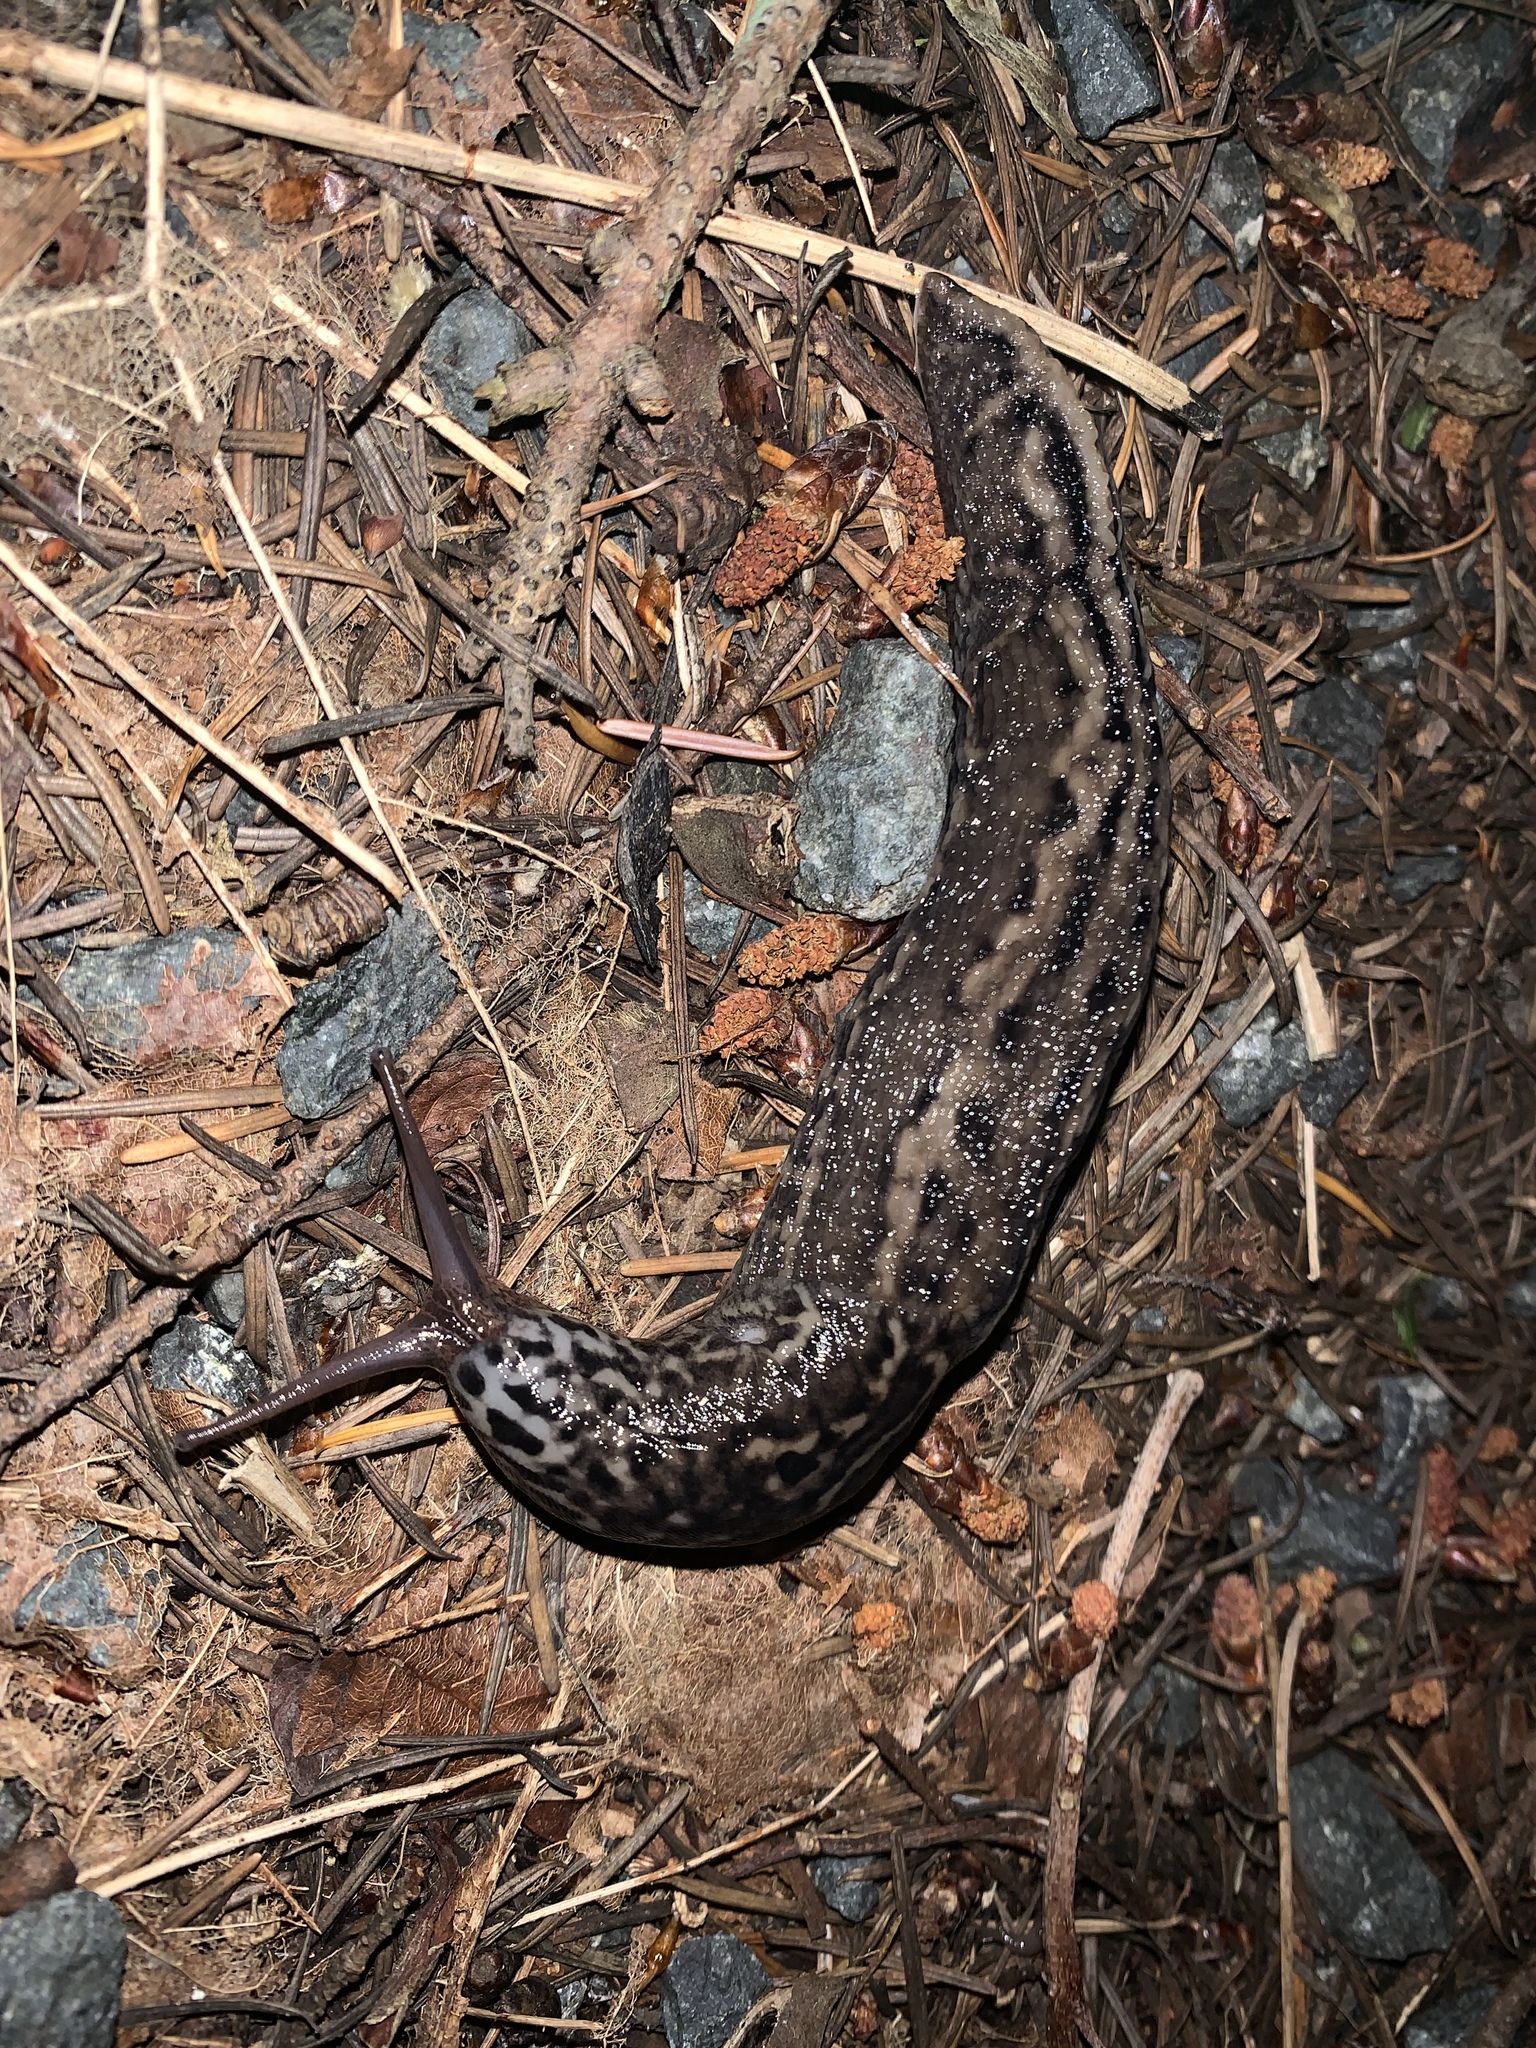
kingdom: Animalia
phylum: Mollusca
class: Gastropoda
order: Stylommatophora
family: Limacidae
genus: Limax
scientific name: Limax maximus
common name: Great grey slug
